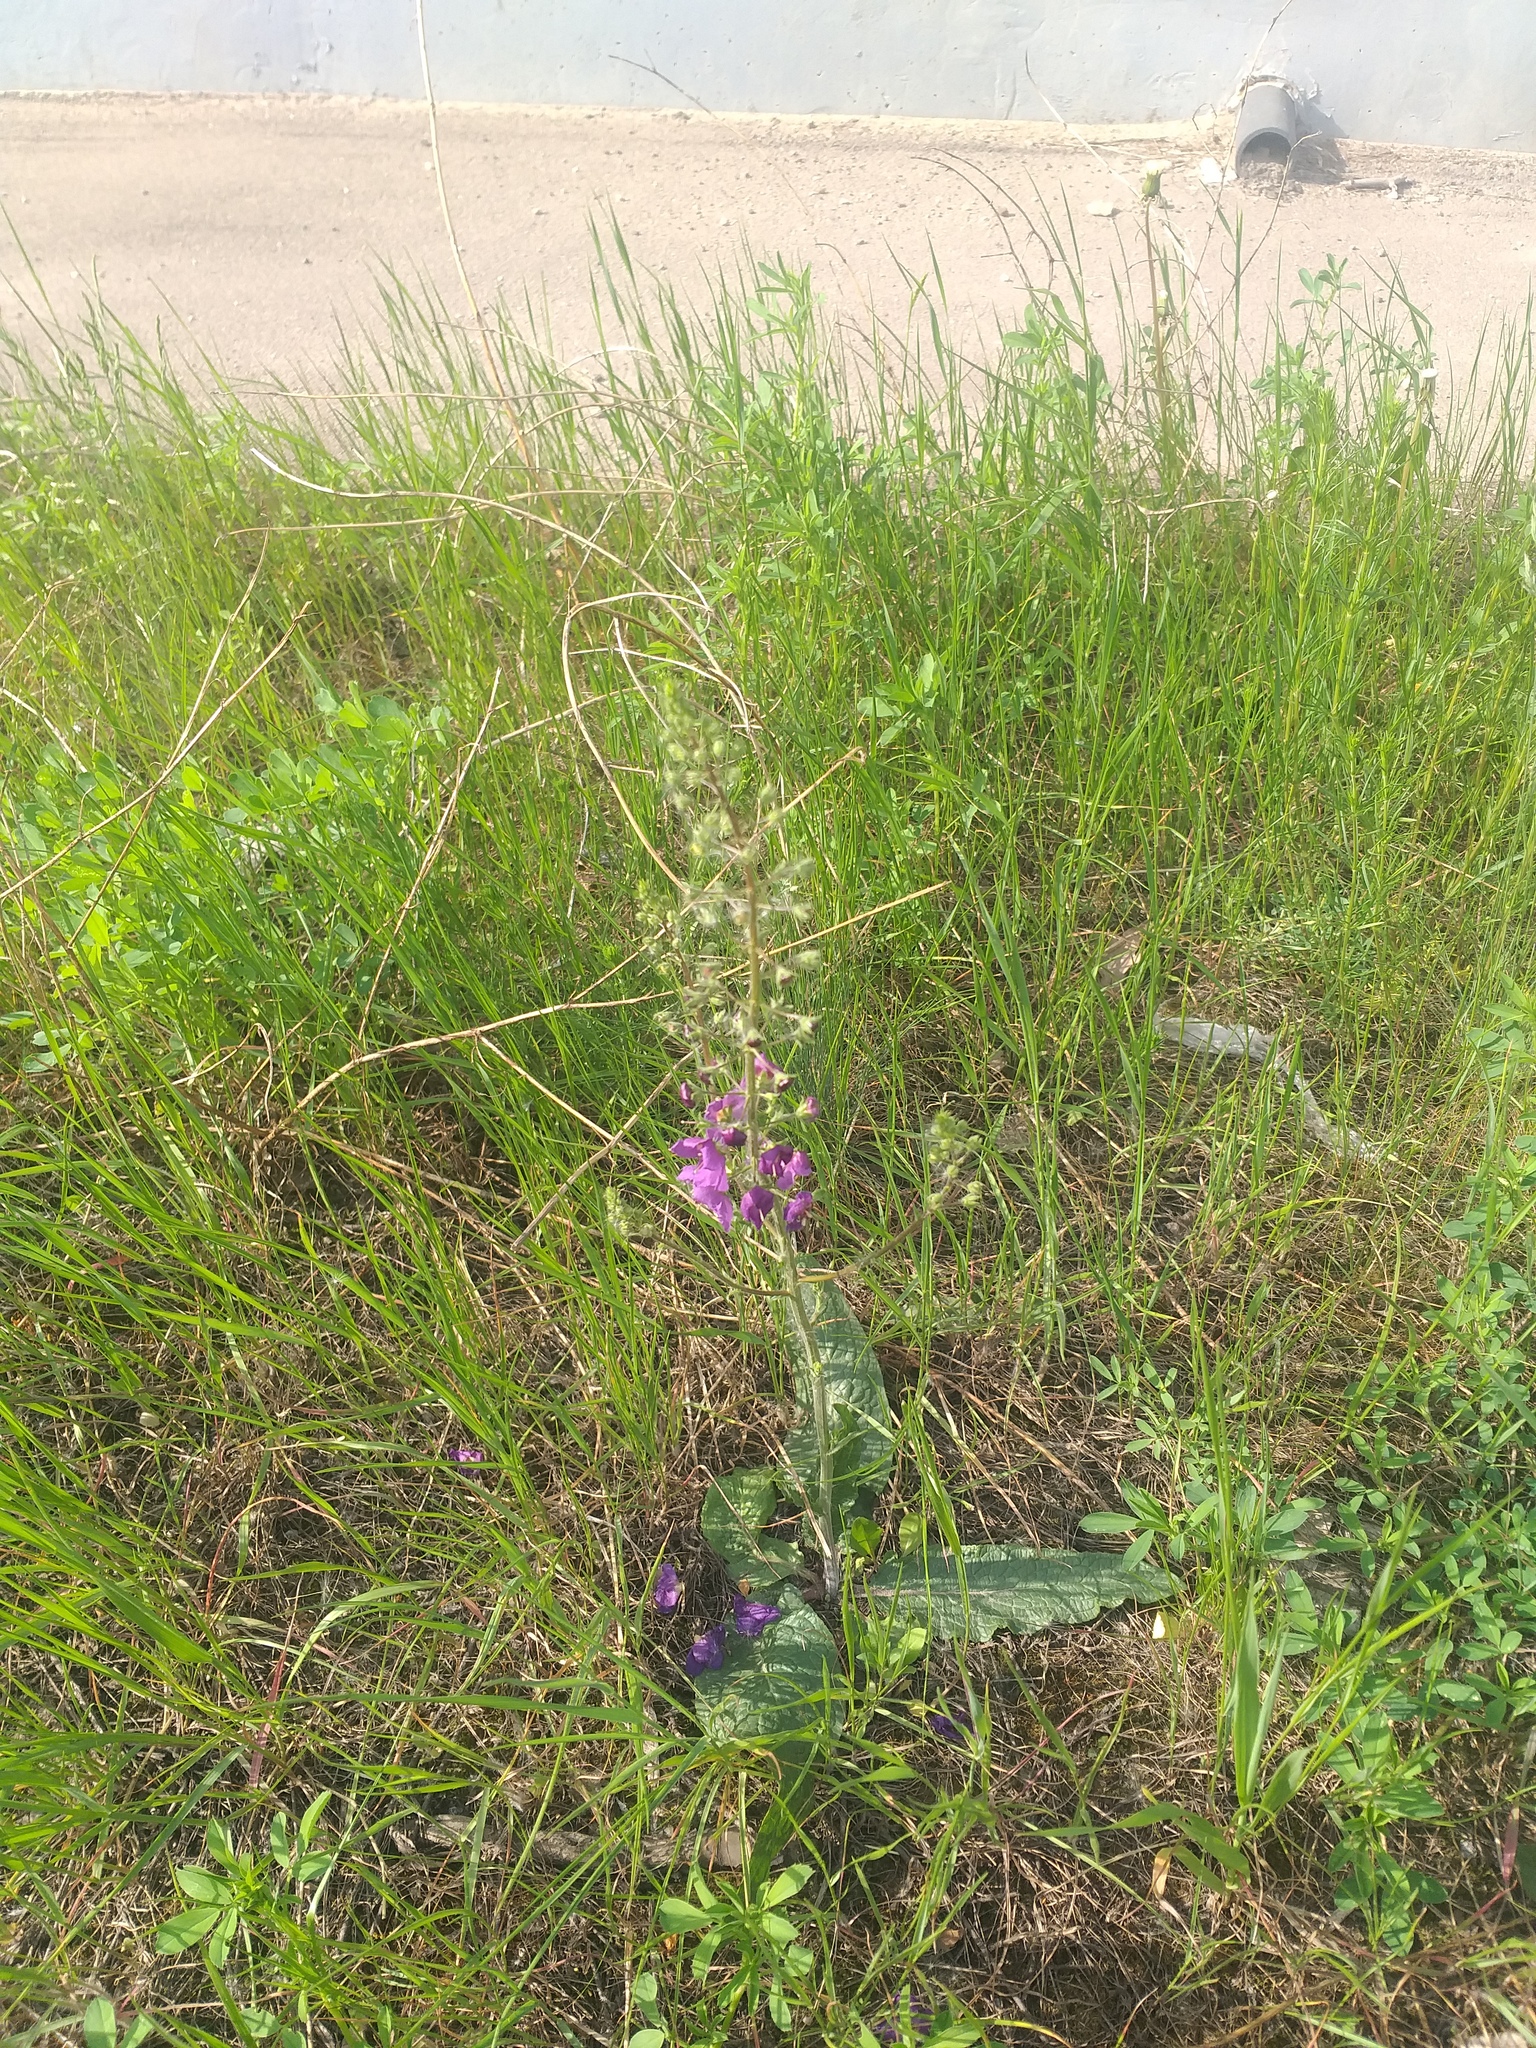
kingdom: Plantae
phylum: Tracheophyta
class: Magnoliopsida
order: Lamiales
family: Scrophulariaceae
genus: Verbascum
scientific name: Verbascum phoeniceum
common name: Purple mullein
